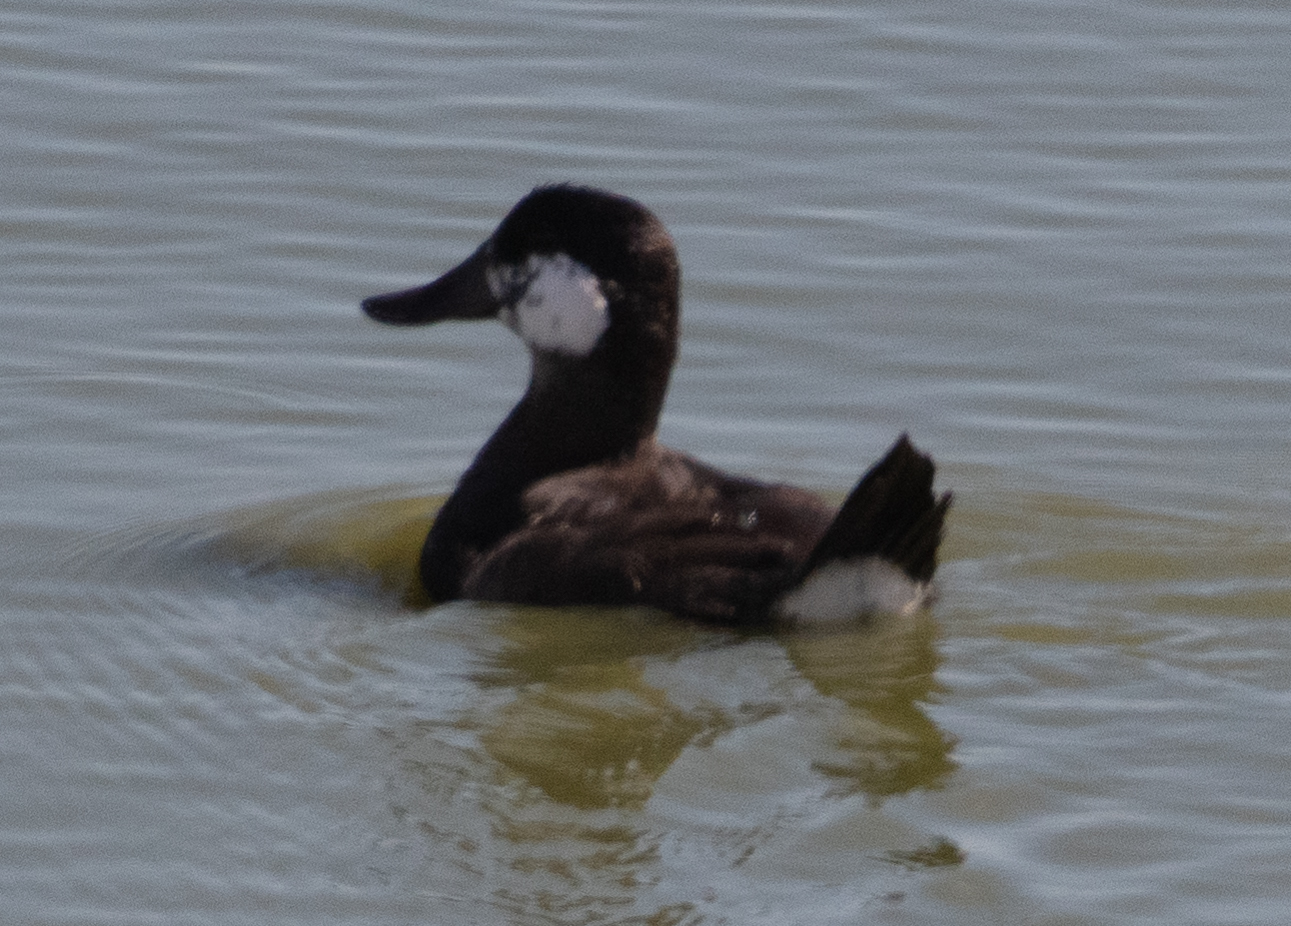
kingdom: Animalia
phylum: Chordata
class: Aves
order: Anseriformes
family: Anatidae
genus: Oxyura
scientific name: Oxyura jamaicensis
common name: Ruddy duck
